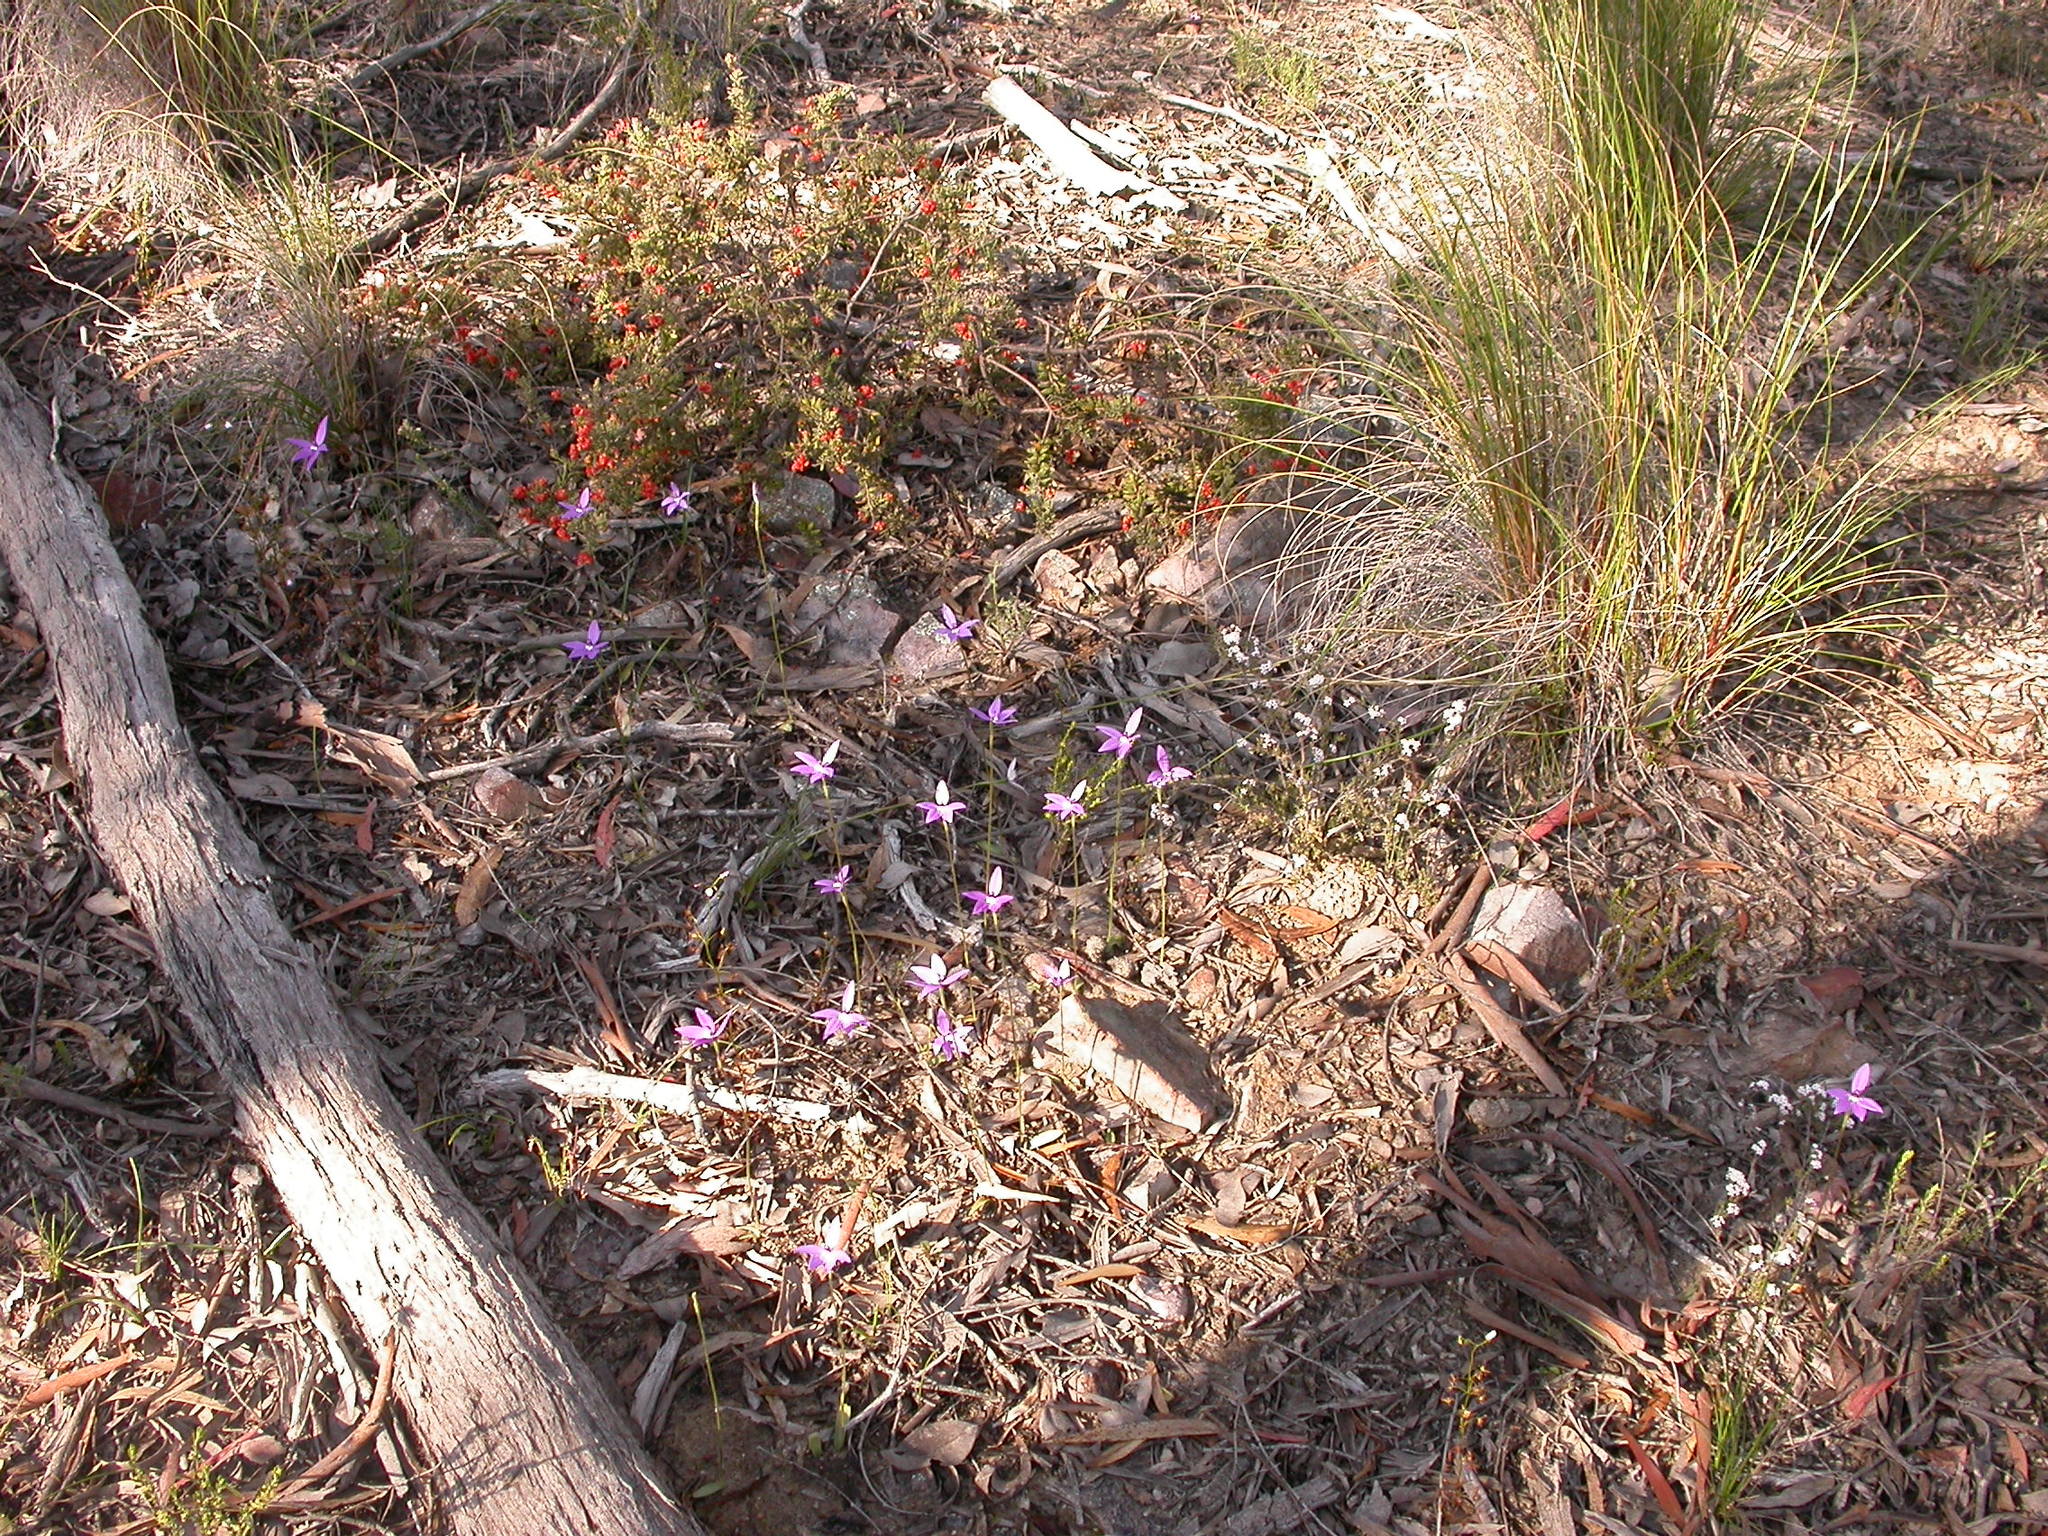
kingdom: Plantae
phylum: Tracheophyta
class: Magnoliopsida
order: Caryophyllales
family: Droseraceae
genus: Drosera
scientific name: Drosera peltata
